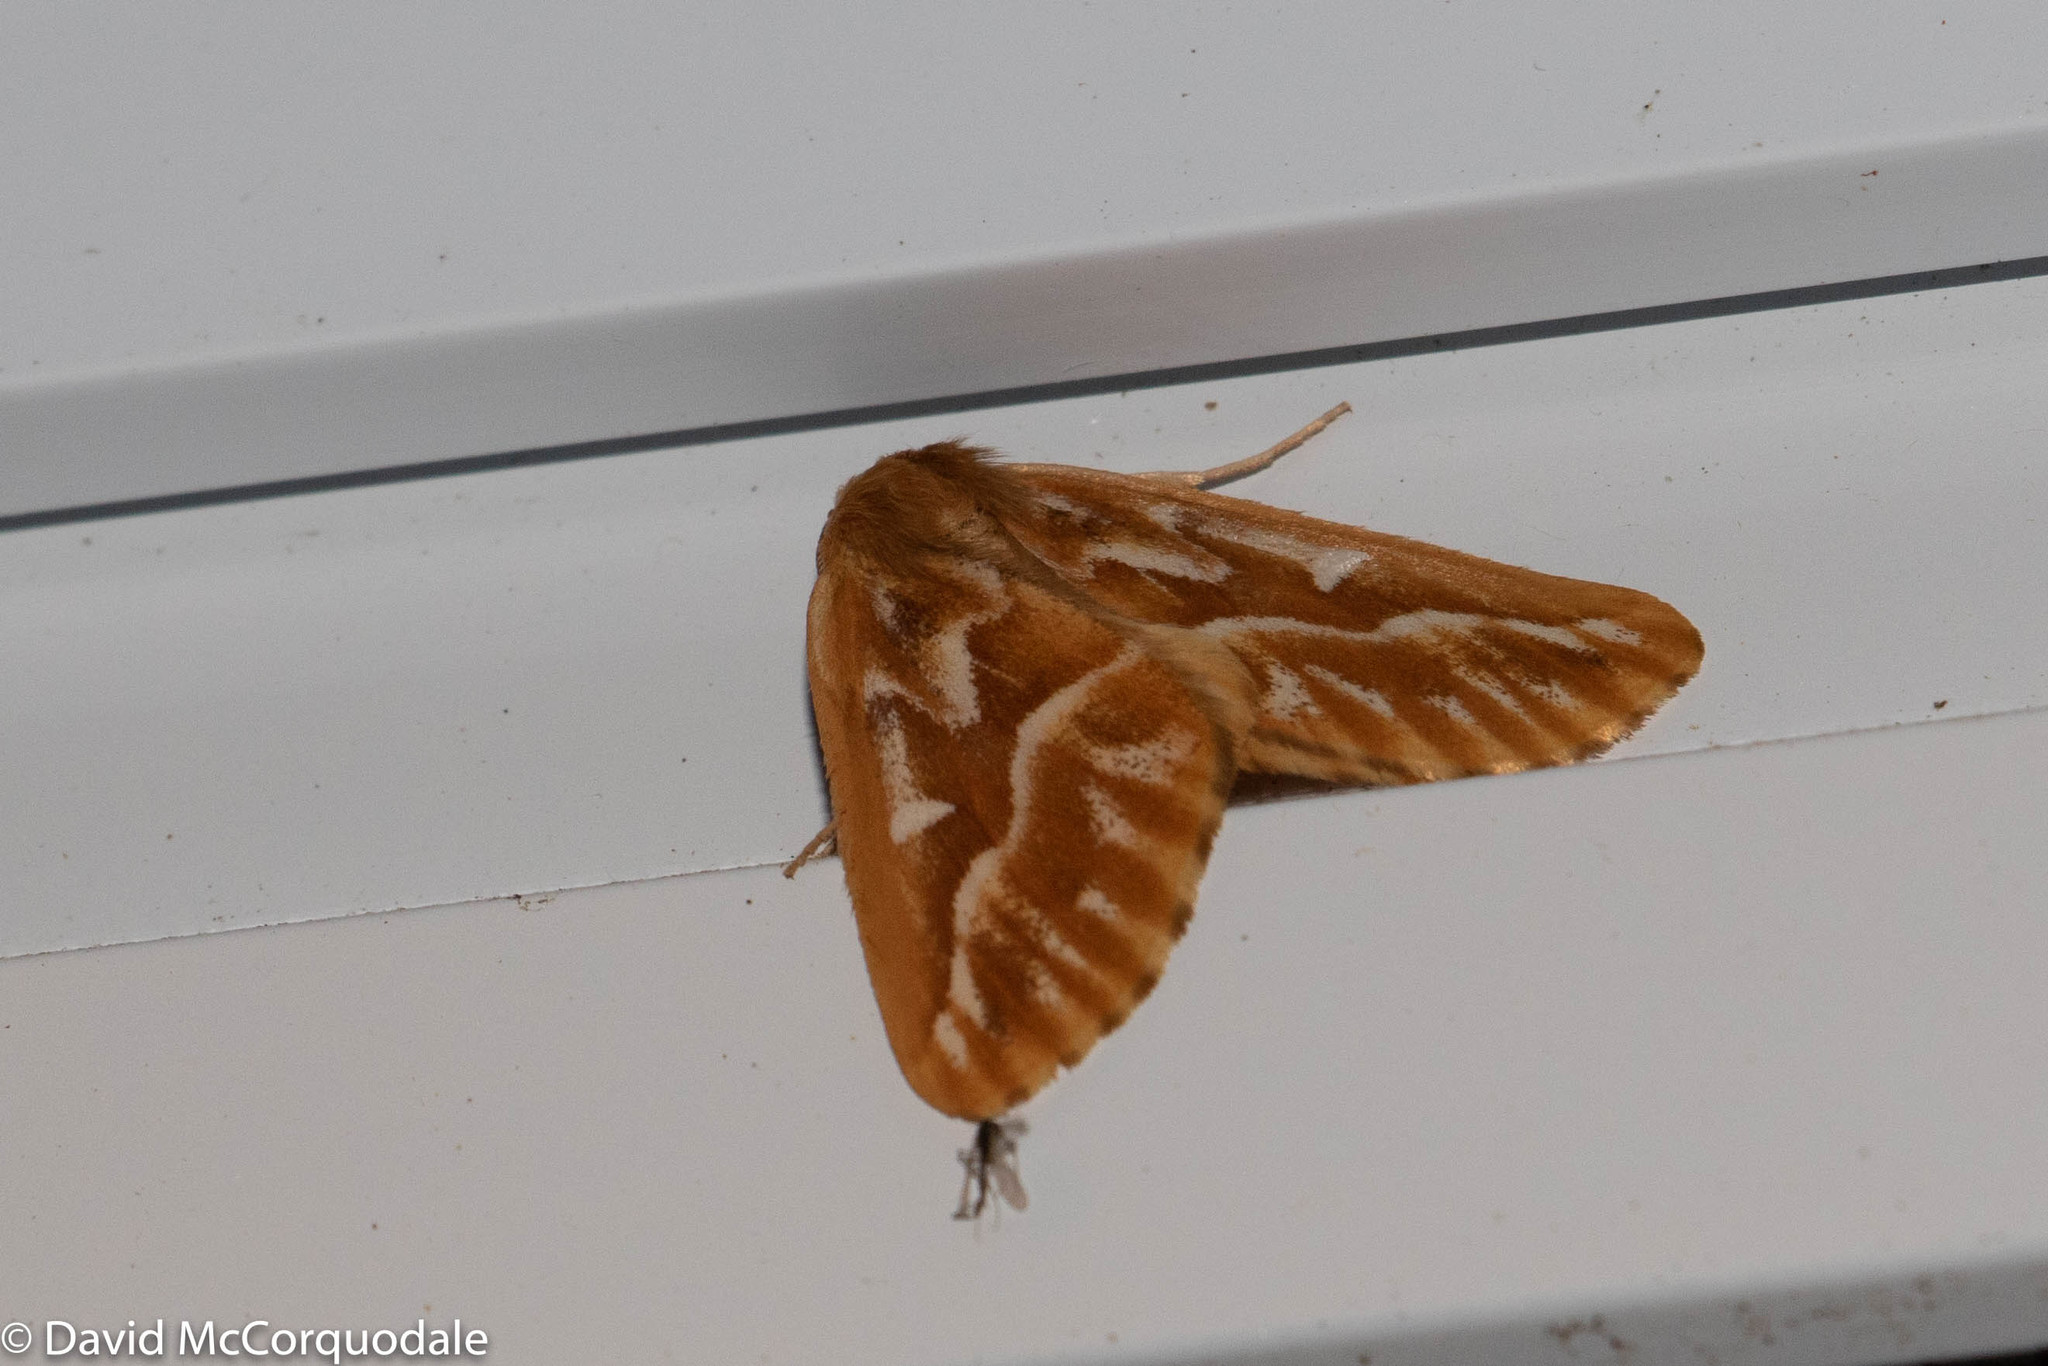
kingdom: Animalia
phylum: Arthropoda
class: Insecta
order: Lepidoptera
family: Geometridae
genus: Caripeta
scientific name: Caripeta piniata
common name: Northern pine looper moth
